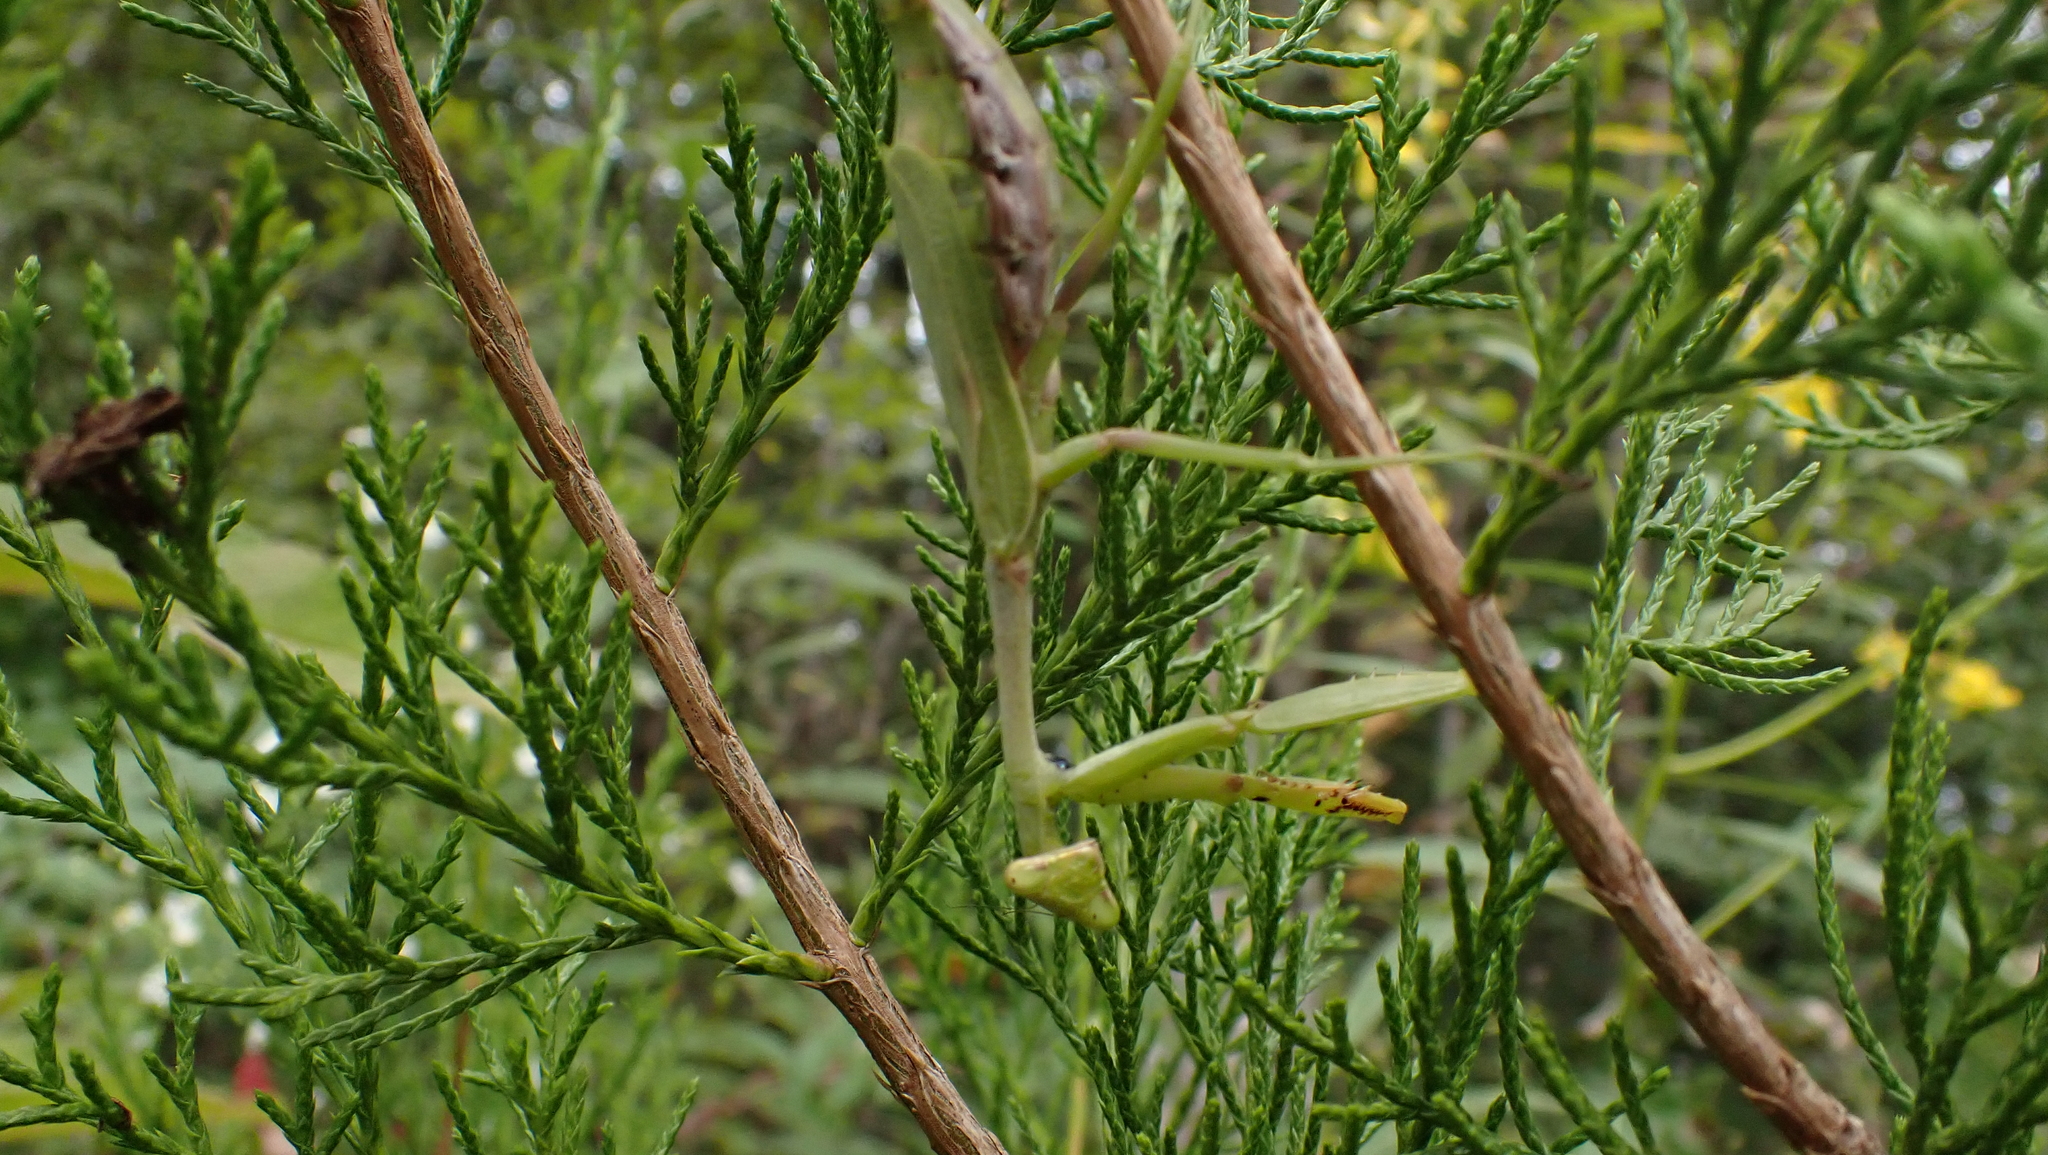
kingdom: Animalia
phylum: Arthropoda
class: Insecta
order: Mantodea
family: Mantidae
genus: Stagmomantis
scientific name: Stagmomantis carolina
